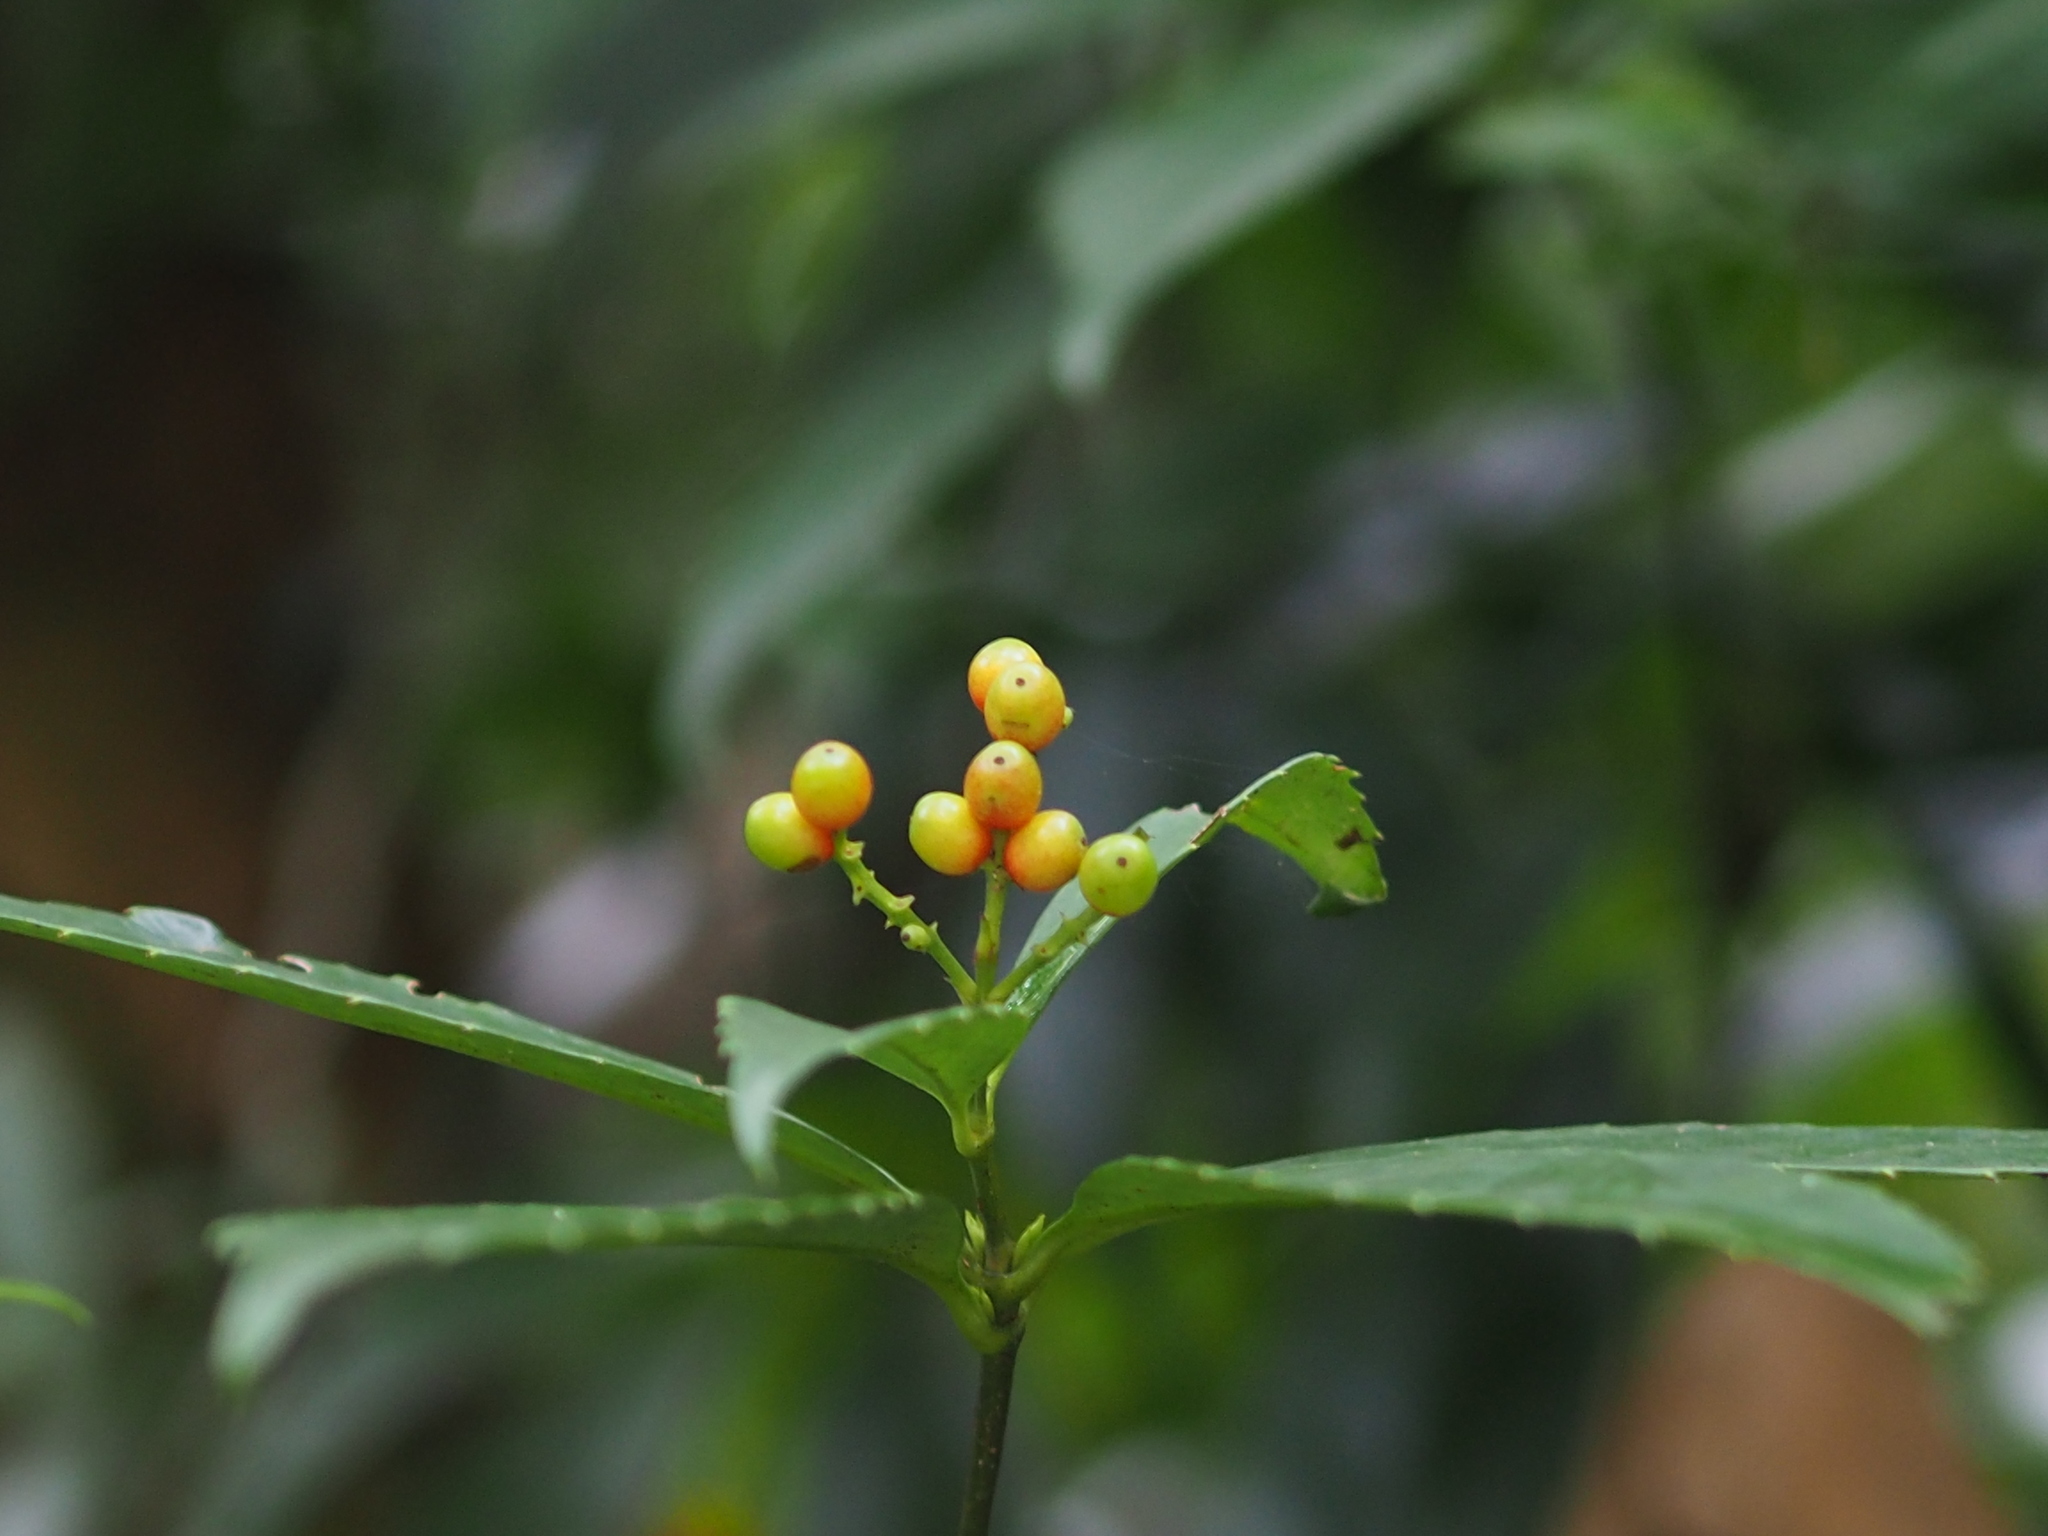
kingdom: Plantae
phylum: Tracheophyta
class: Magnoliopsida
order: Chloranthales
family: Chloranthaceae
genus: Sarcandra
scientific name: Sarcandra glabra
